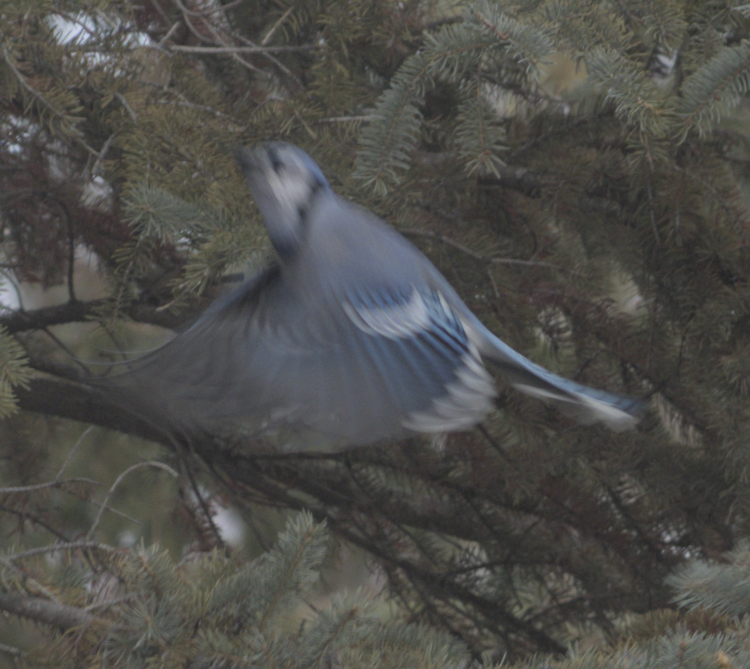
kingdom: Animalia
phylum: Chordata
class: Aves
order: Passeriformes
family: Corvidae
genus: Cyanocitta
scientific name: Cyanocitta cristata
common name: Blue jay
